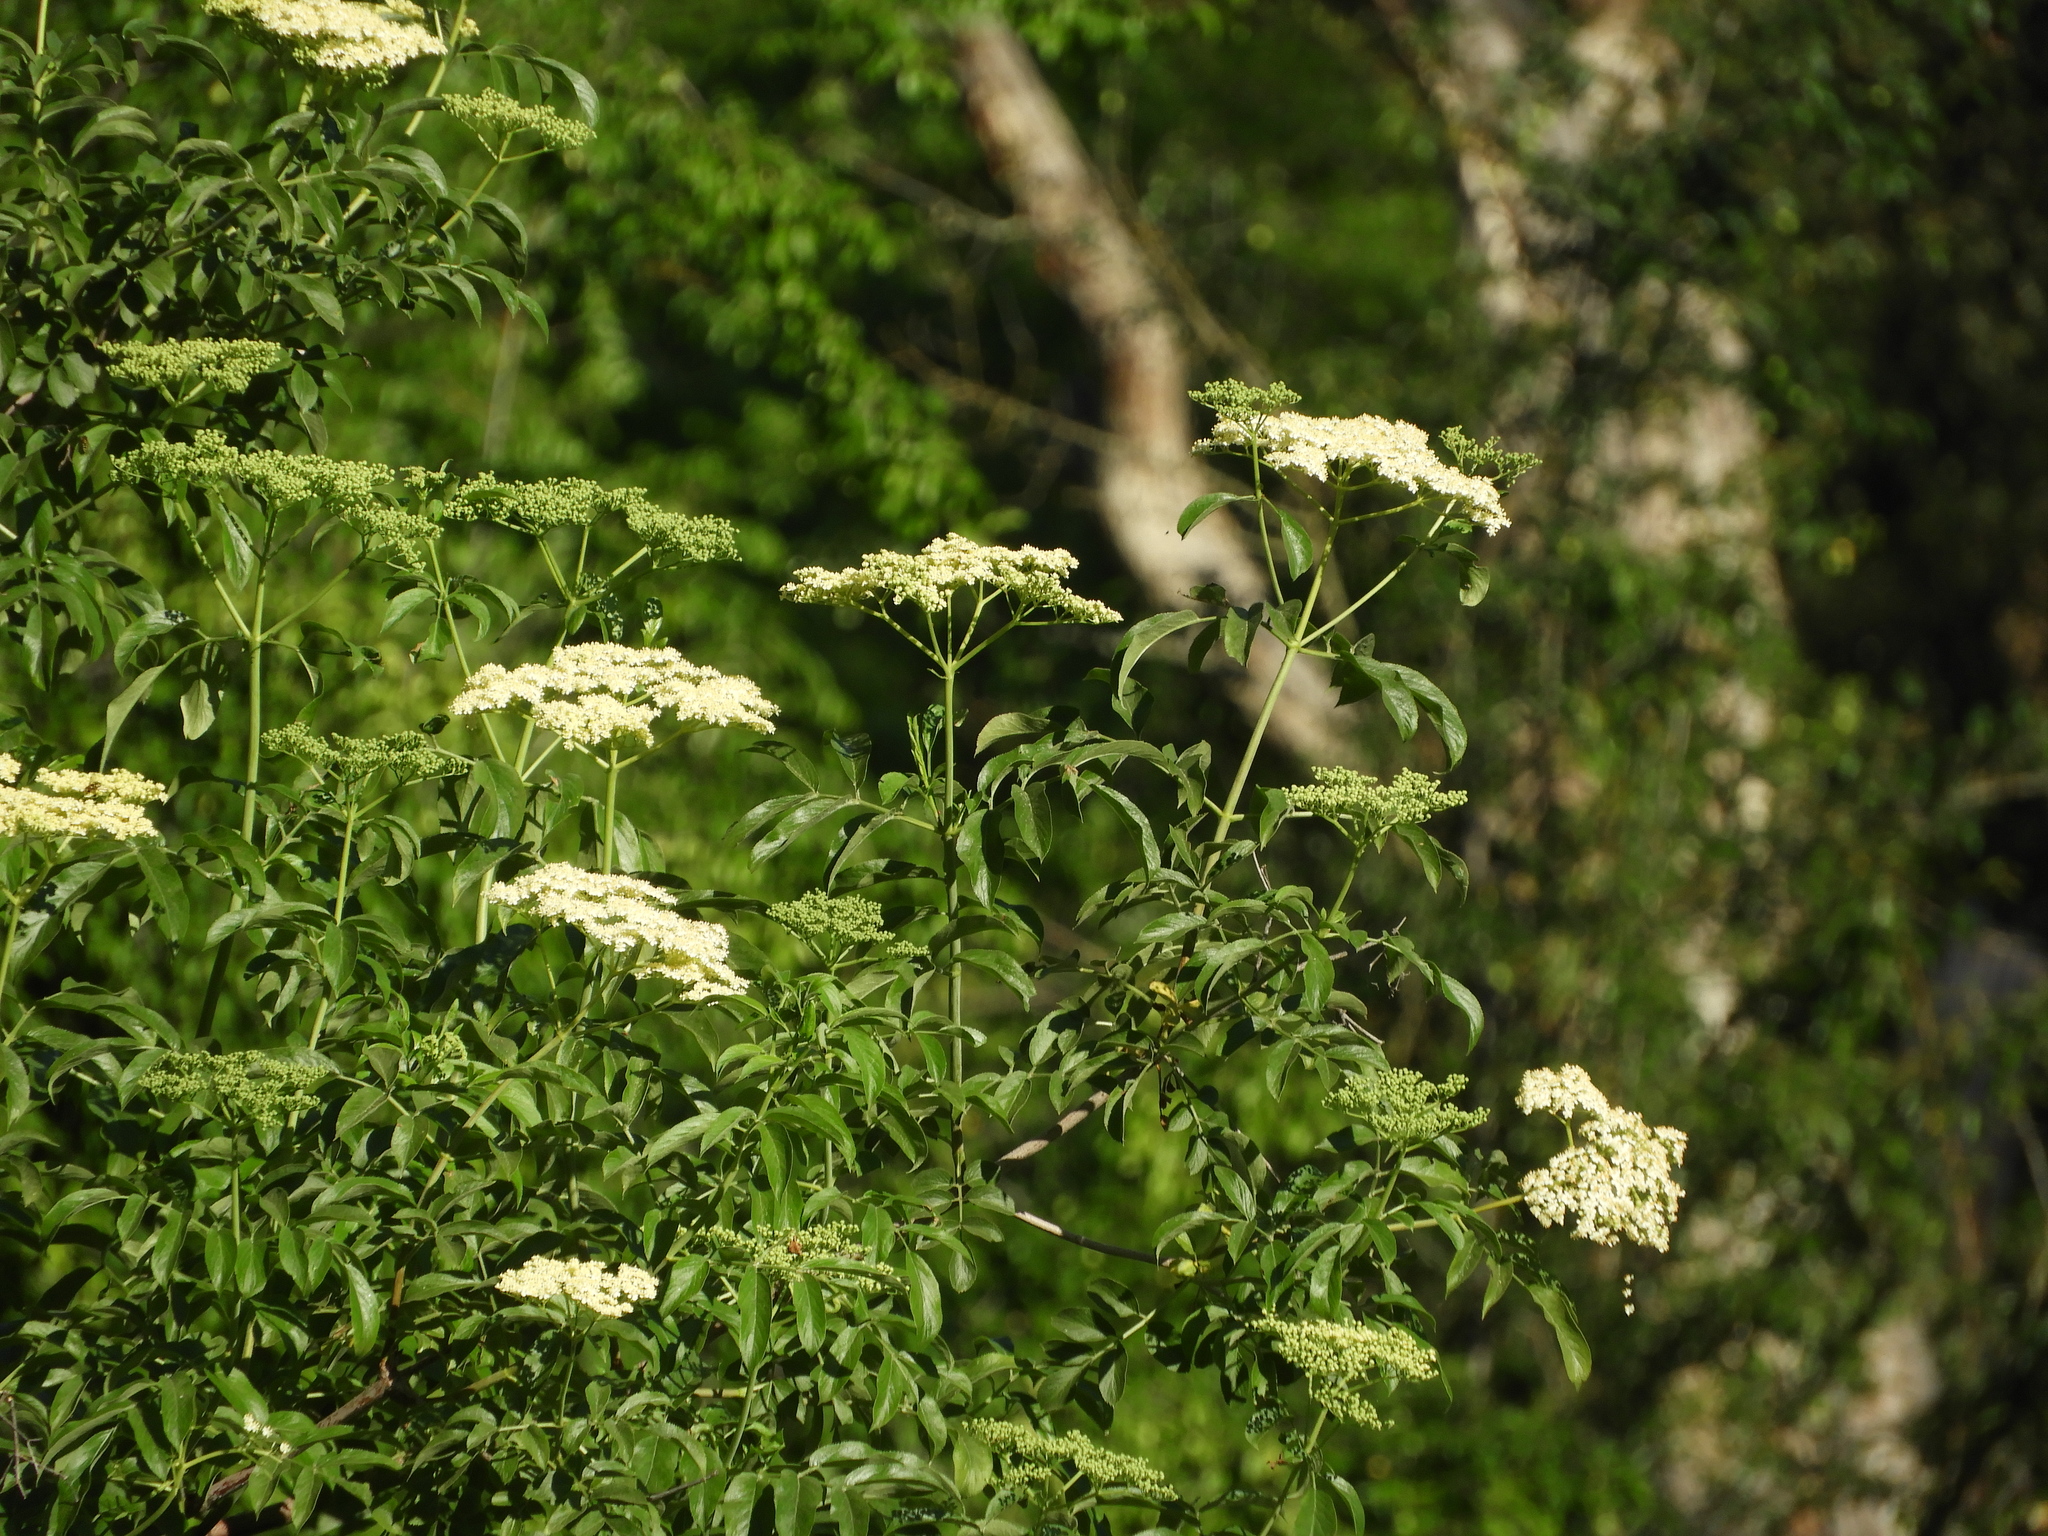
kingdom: Plantae
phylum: Tracheophyta
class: Magnoliopsida
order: Dipsacales
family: Viburnaceae
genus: Sambucus
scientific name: Sambucus cerulea
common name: Blue elder
